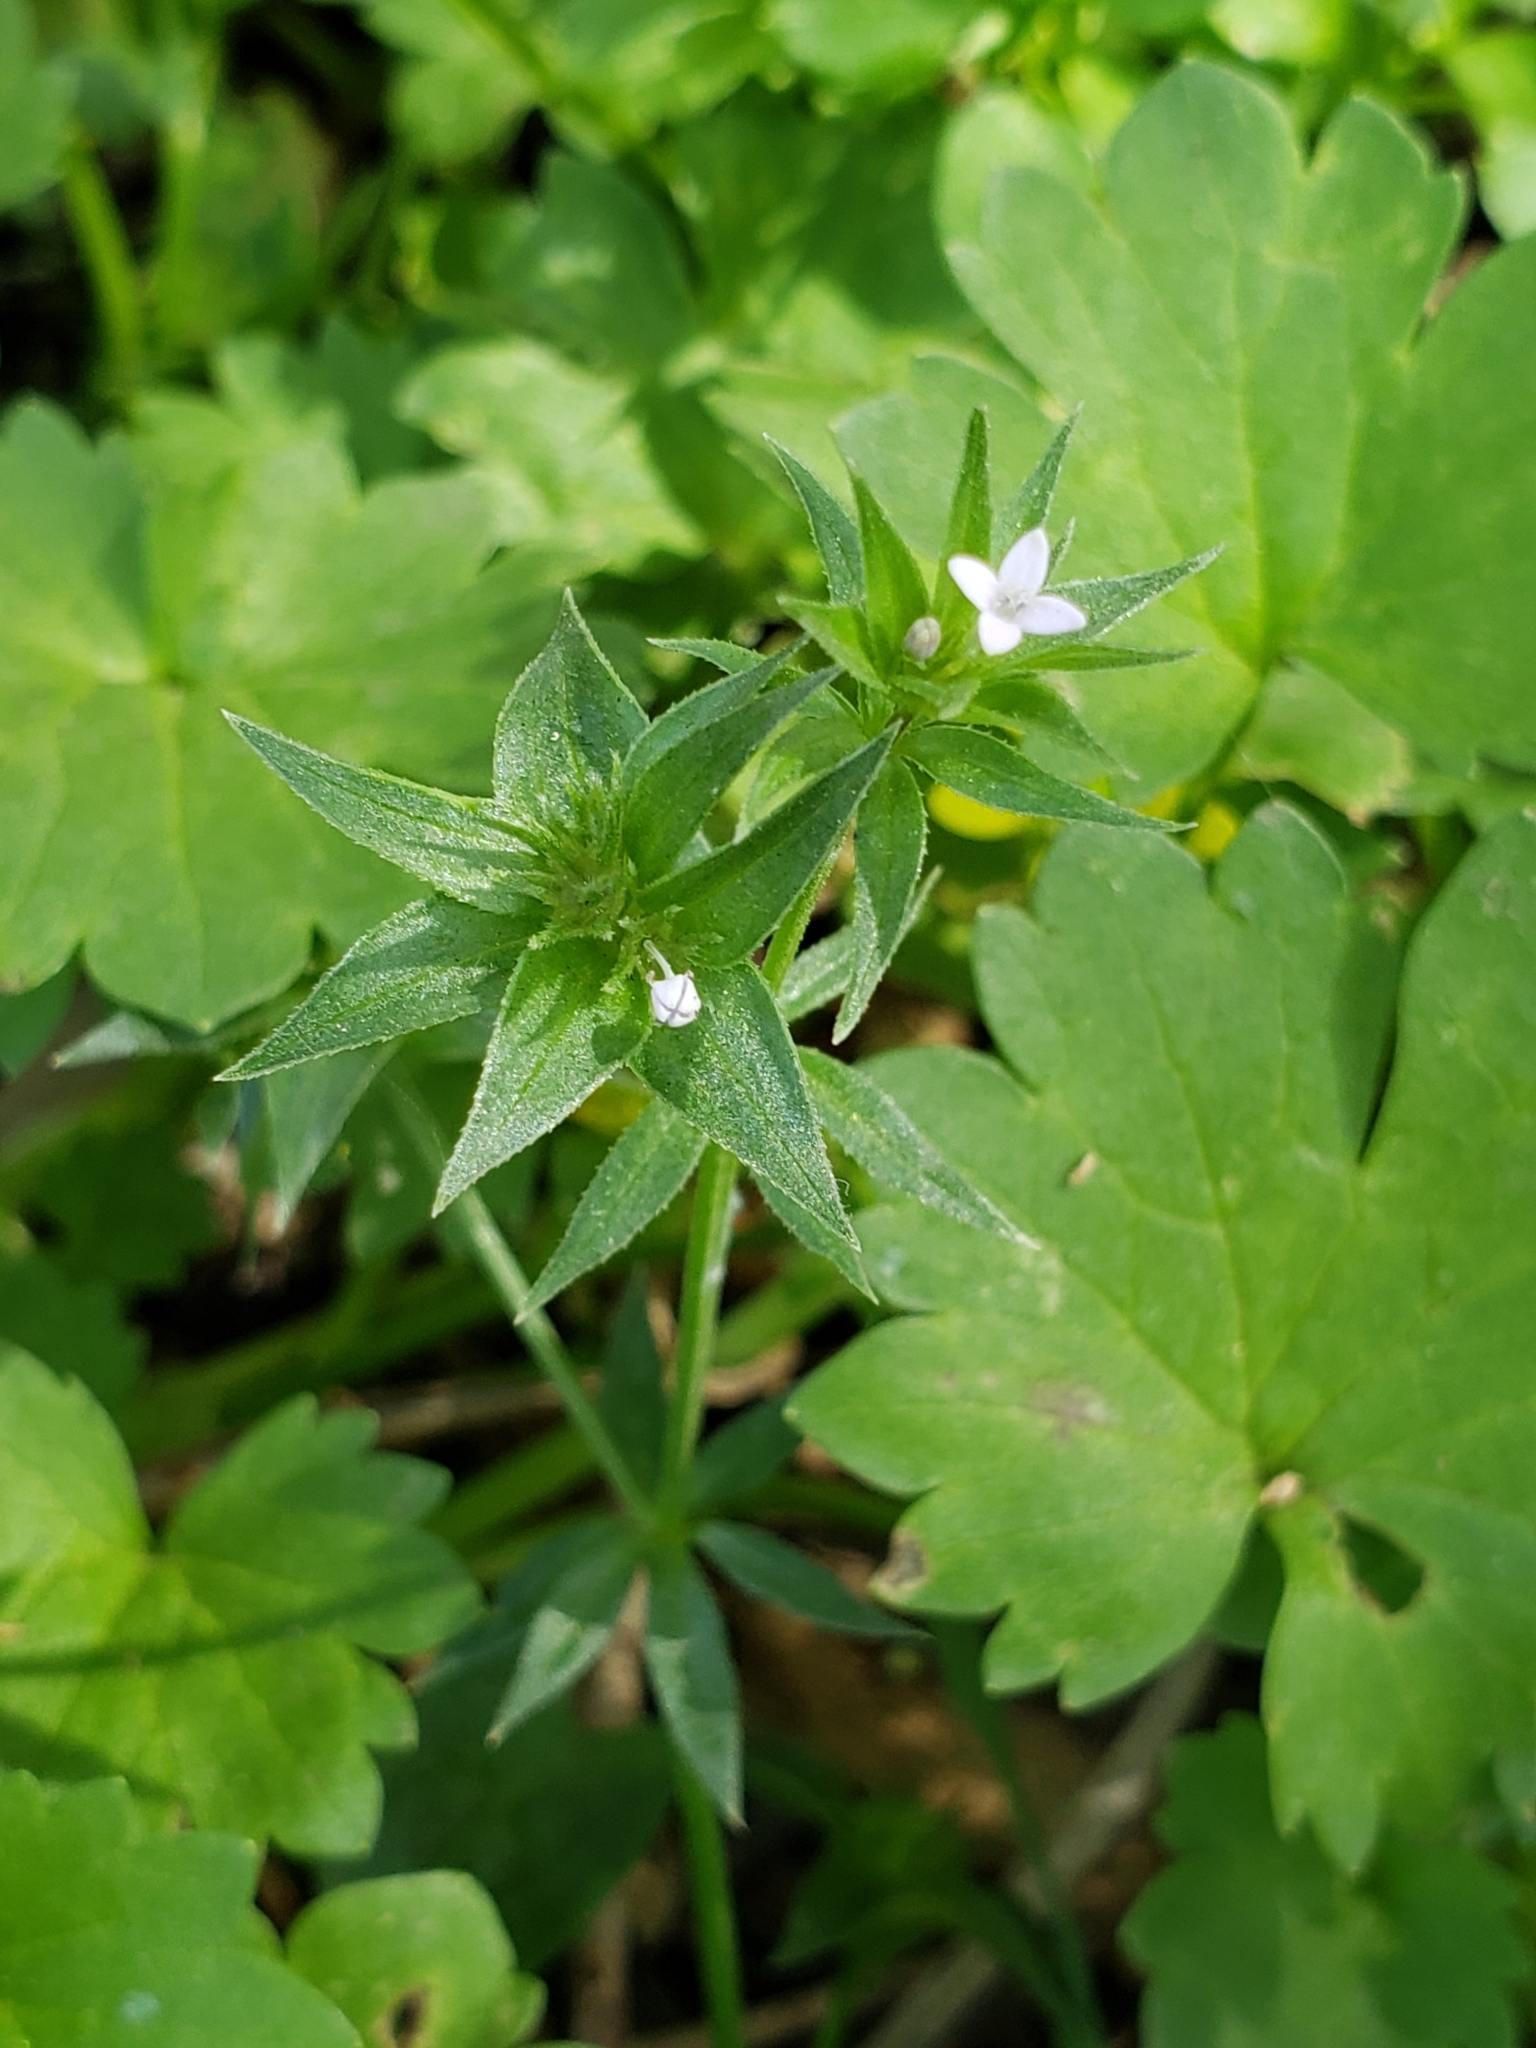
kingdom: Plantae
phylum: Tracheophyta
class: Magnoliopsida
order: Gentianales
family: Rubiaceae
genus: Sherardia
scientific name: Sherardia arvensis
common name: Field madder
